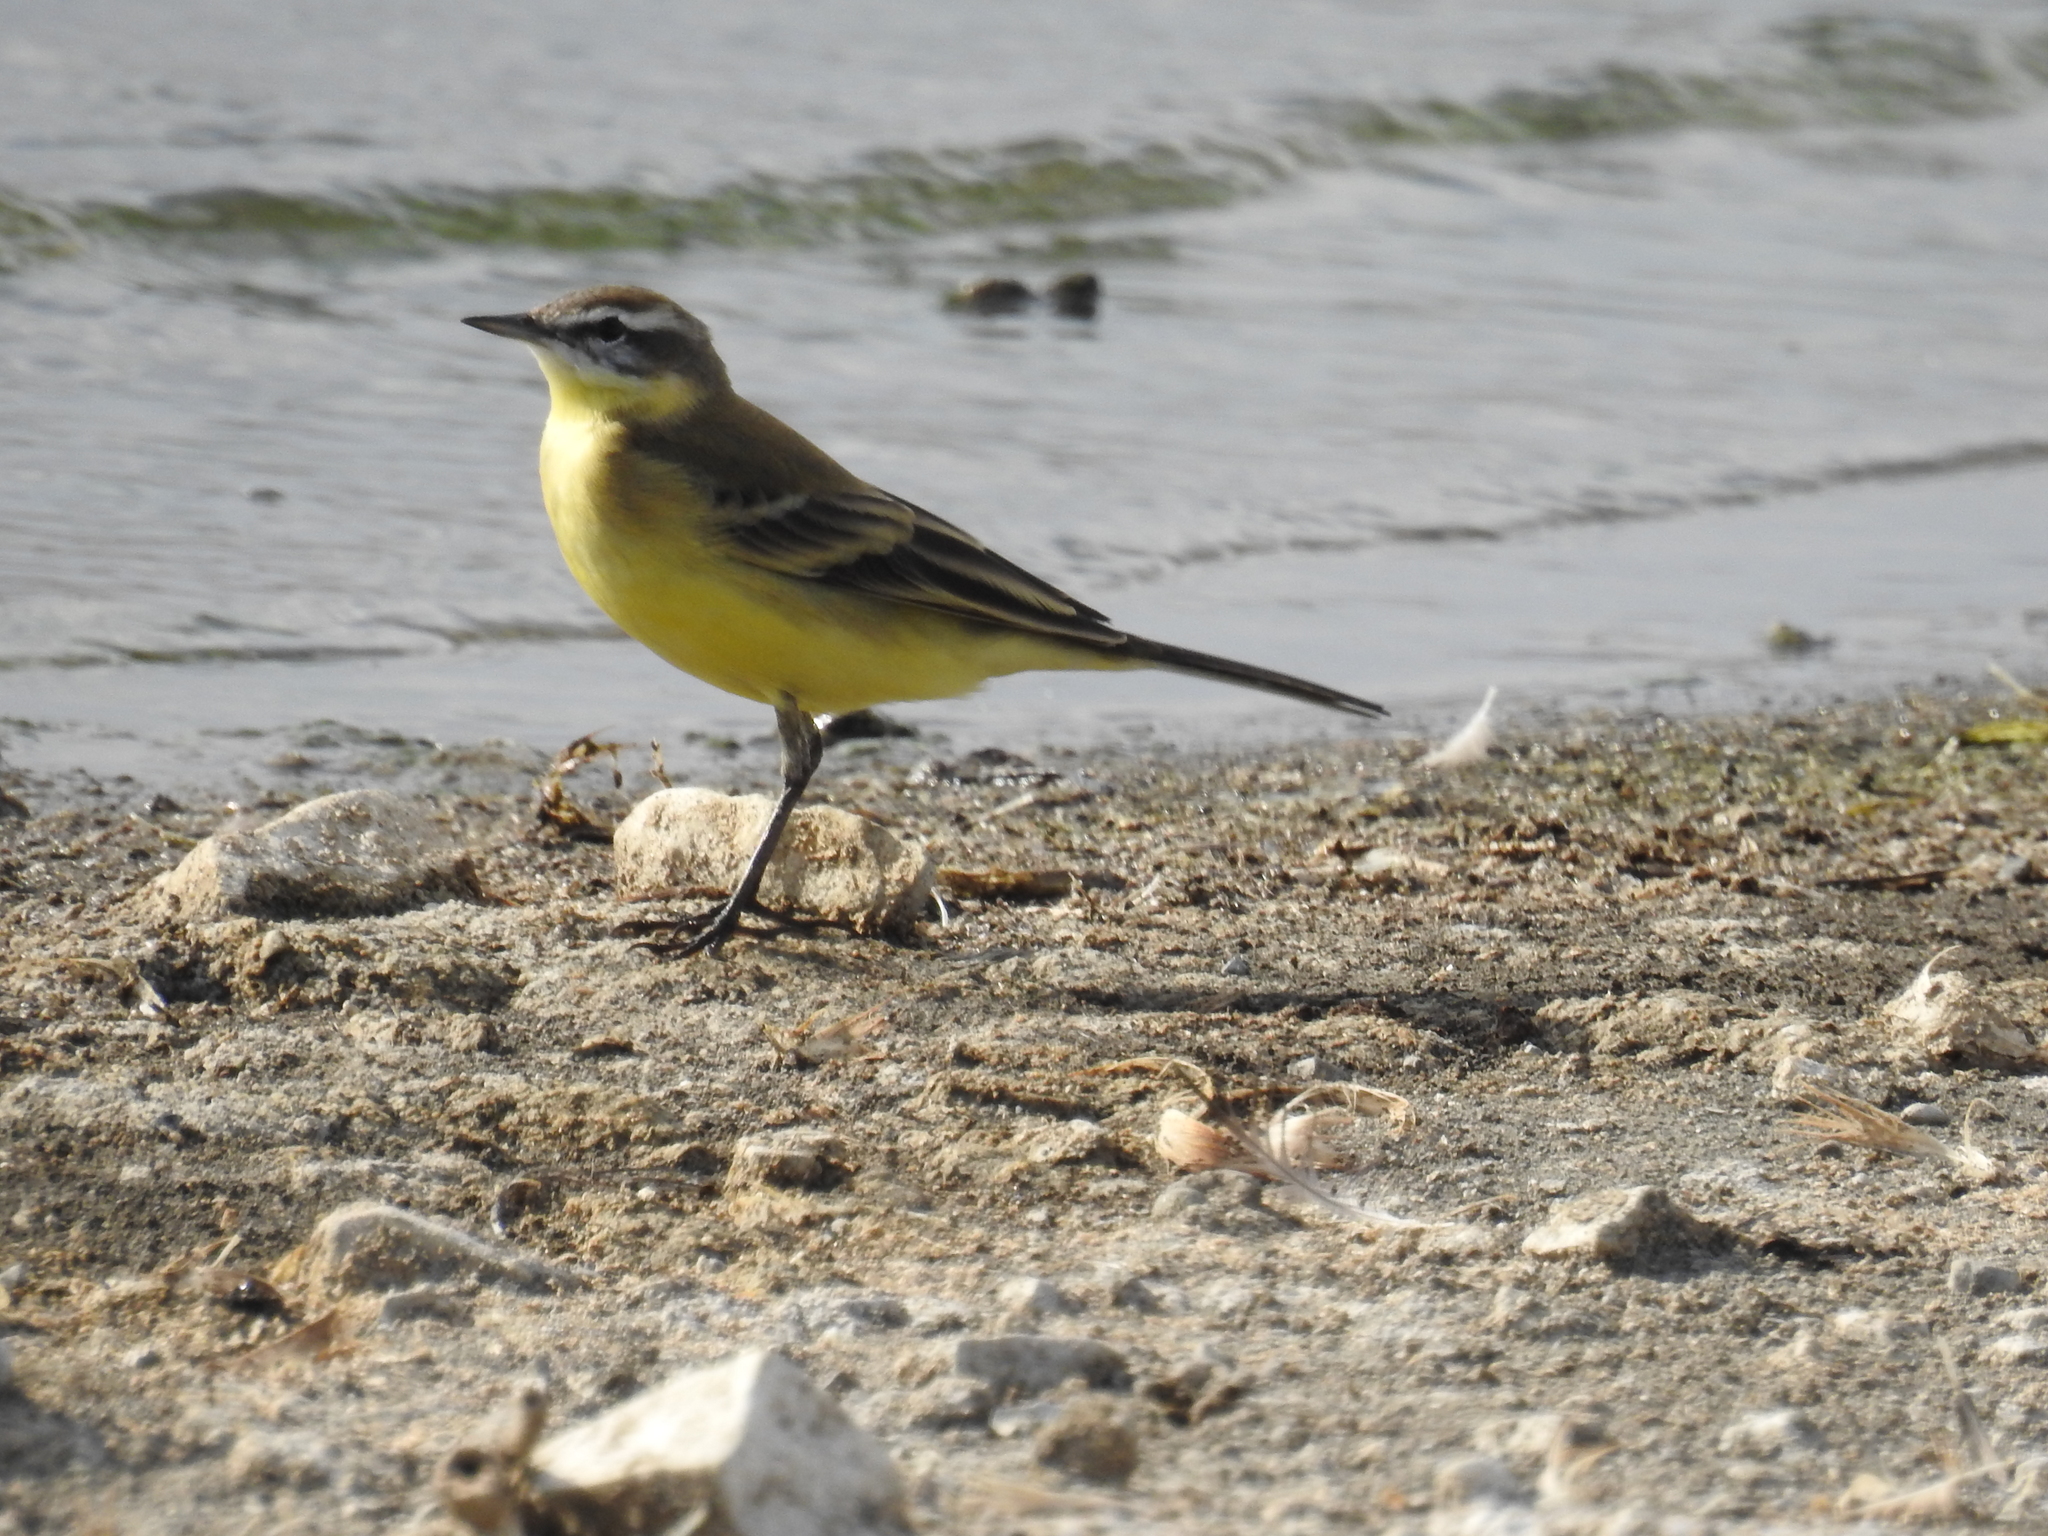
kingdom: Animalia
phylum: Chordata
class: Aves
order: Passeriformes
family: Motacillidae
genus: Motacilla
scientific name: Motacilla flava
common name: Western yellow wagtail
